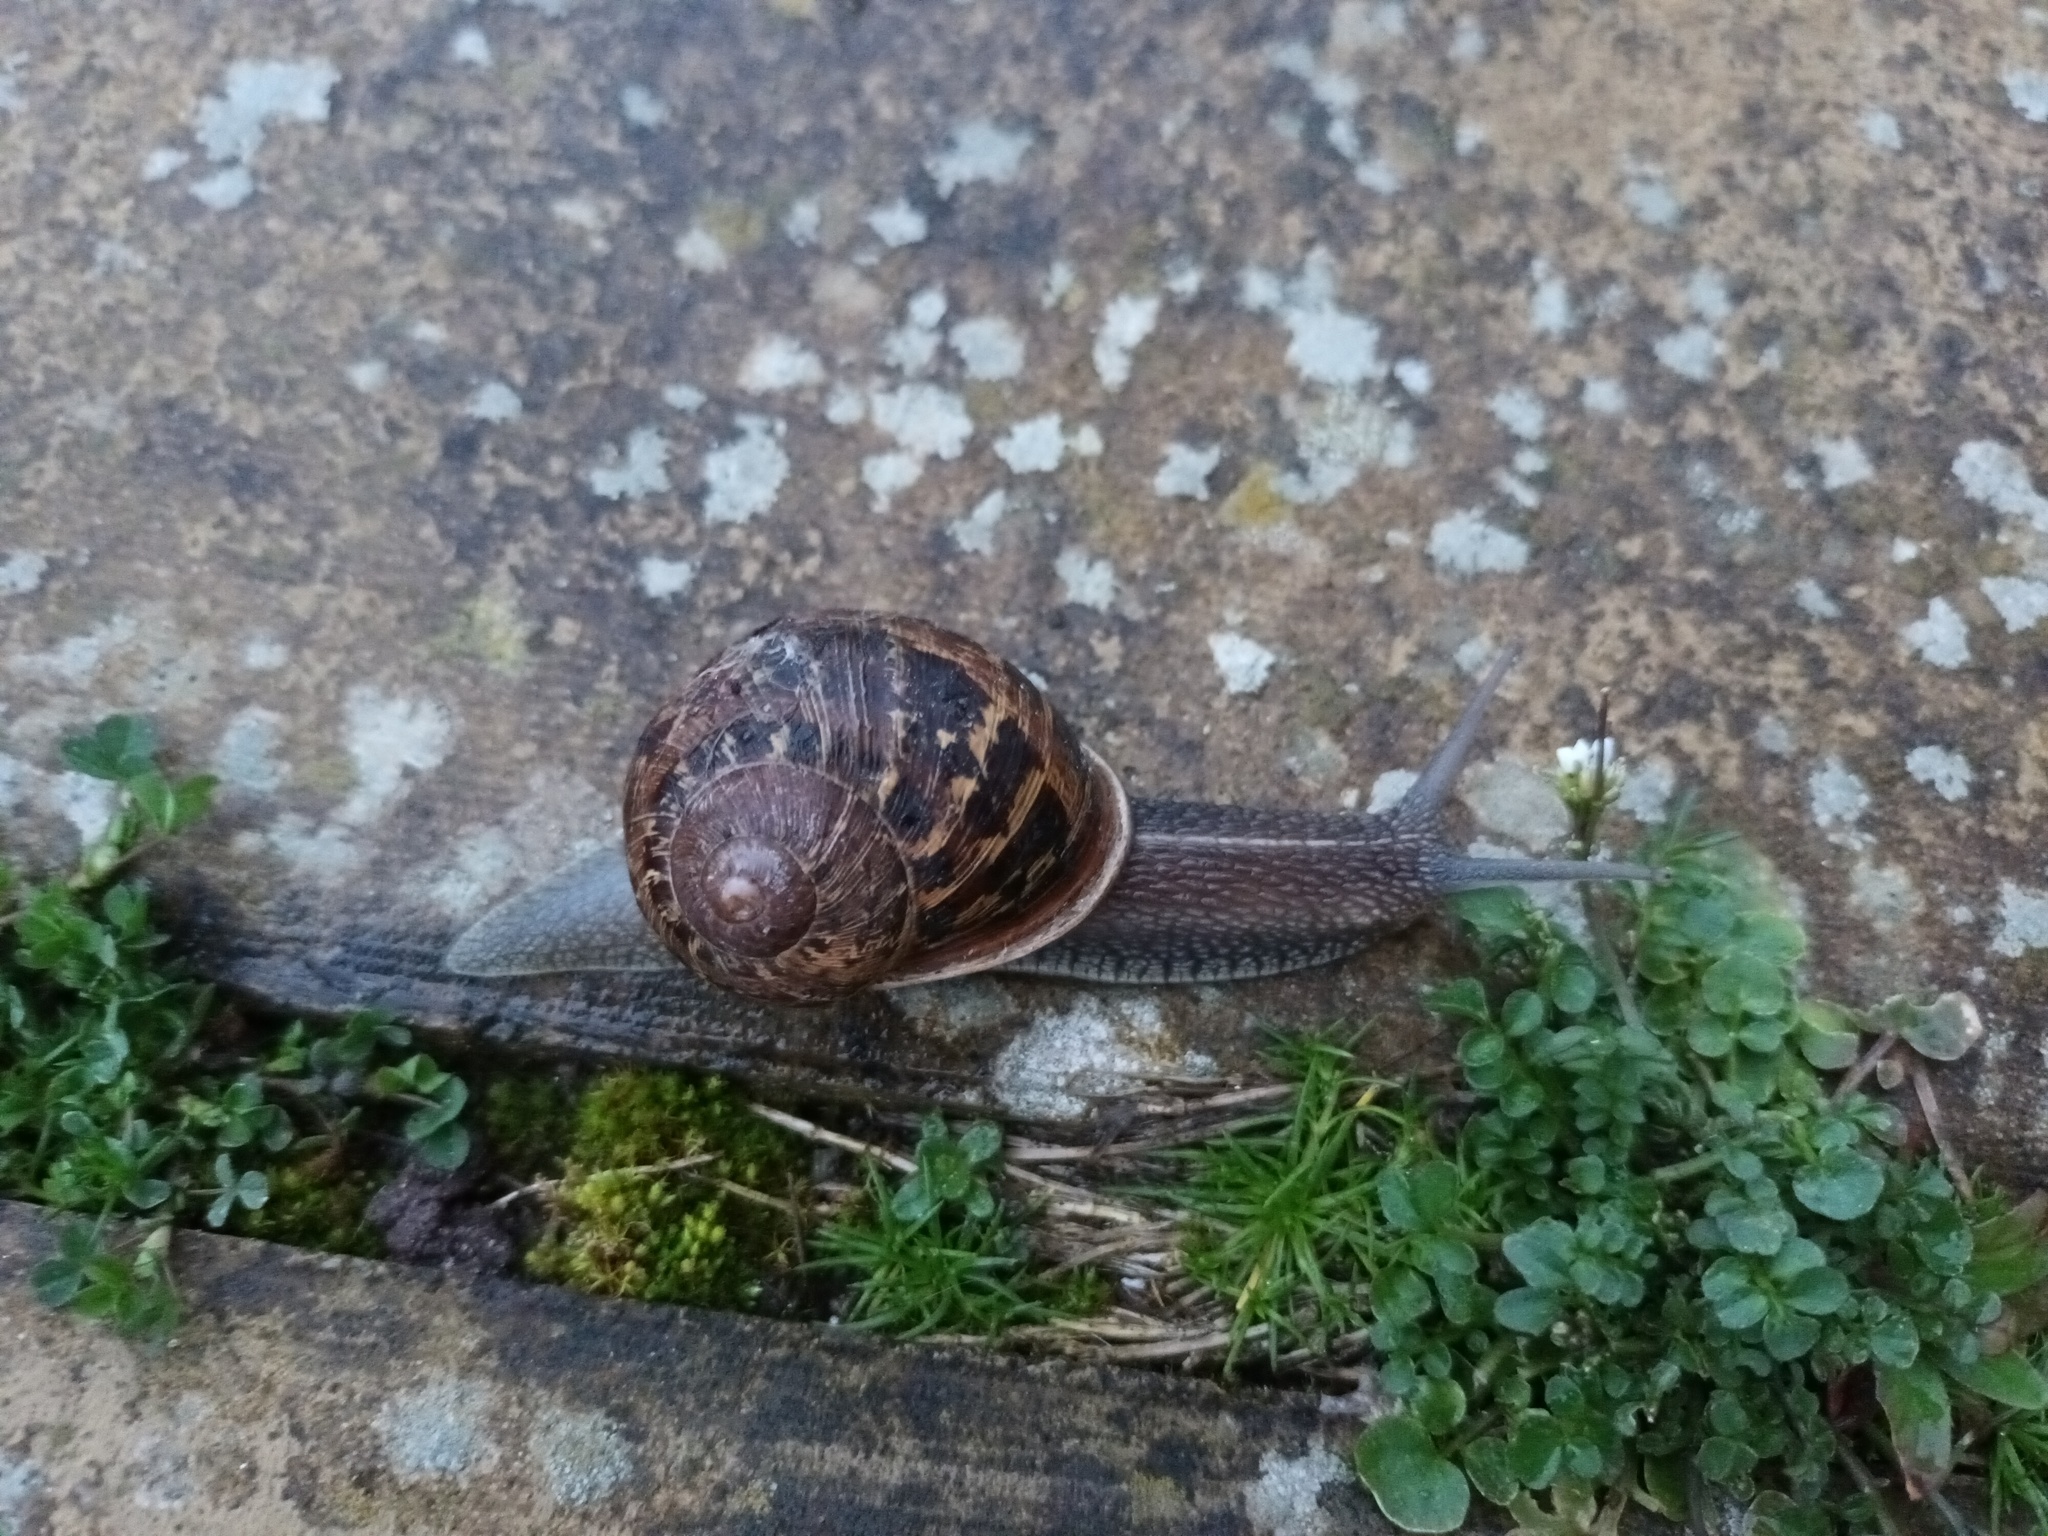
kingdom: Animalia
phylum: Mollusca
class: Gastropoda
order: Stylommatophora
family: Helicidae
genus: Cornu
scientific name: Cornu aspersum
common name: Brown garden snail
